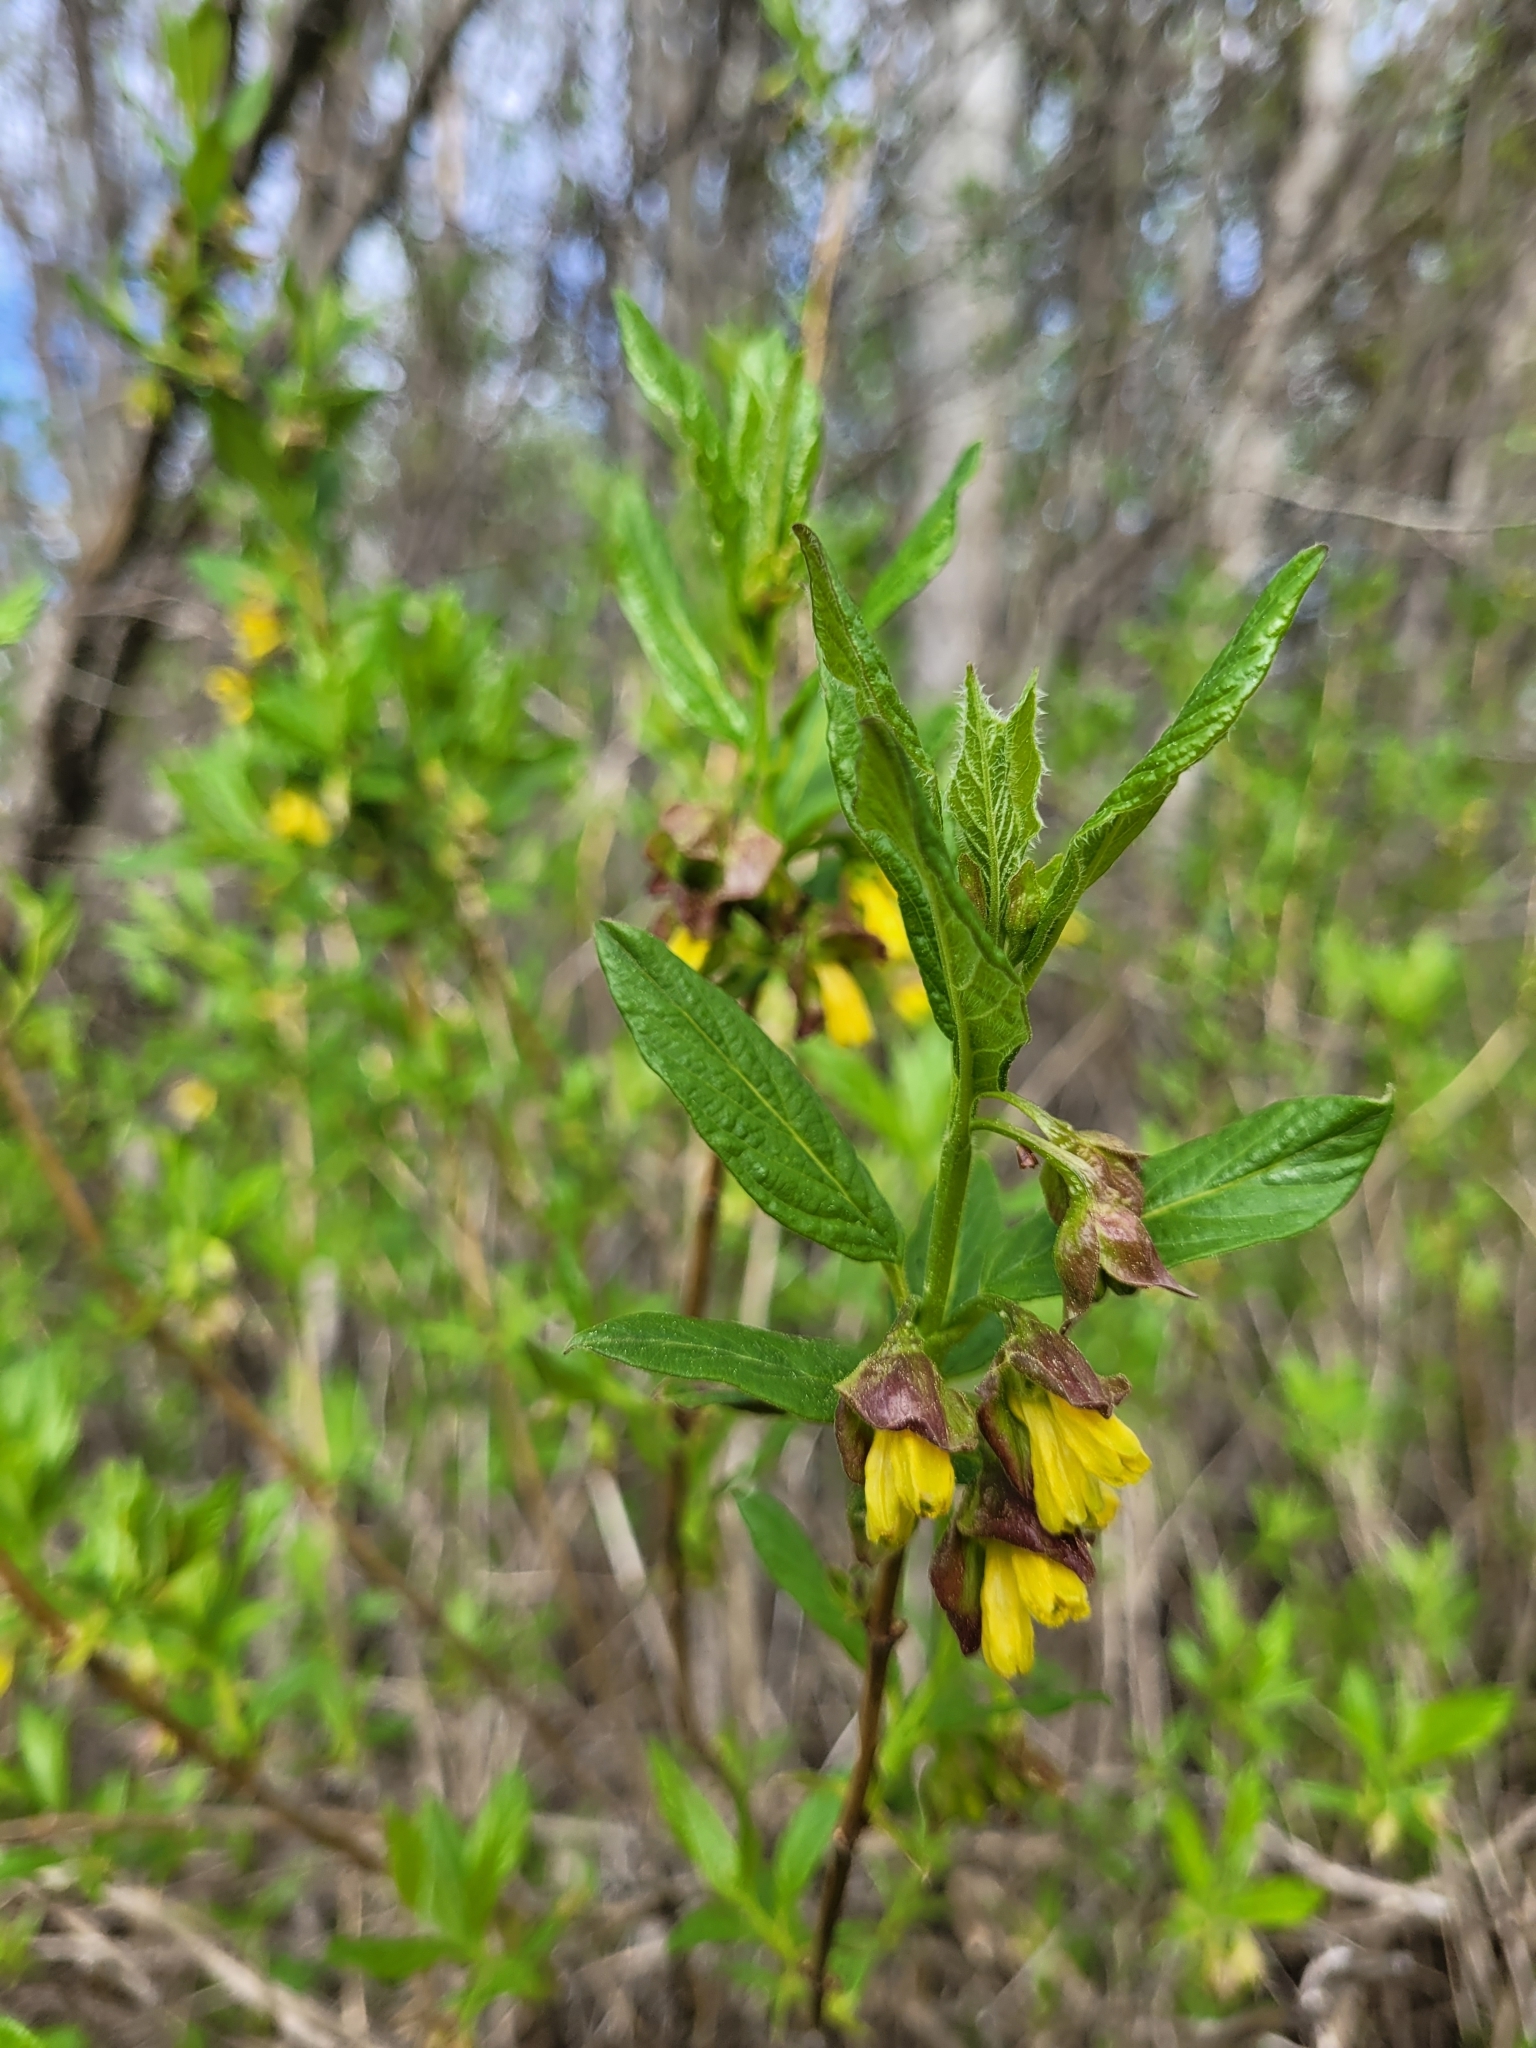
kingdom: Plantae
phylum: Tracheophyta
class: Magnoliopsida
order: Dipsacales
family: Caprifoliaceae
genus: Lonicera
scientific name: Lonicera involucrata
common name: Californian honeysuckle
